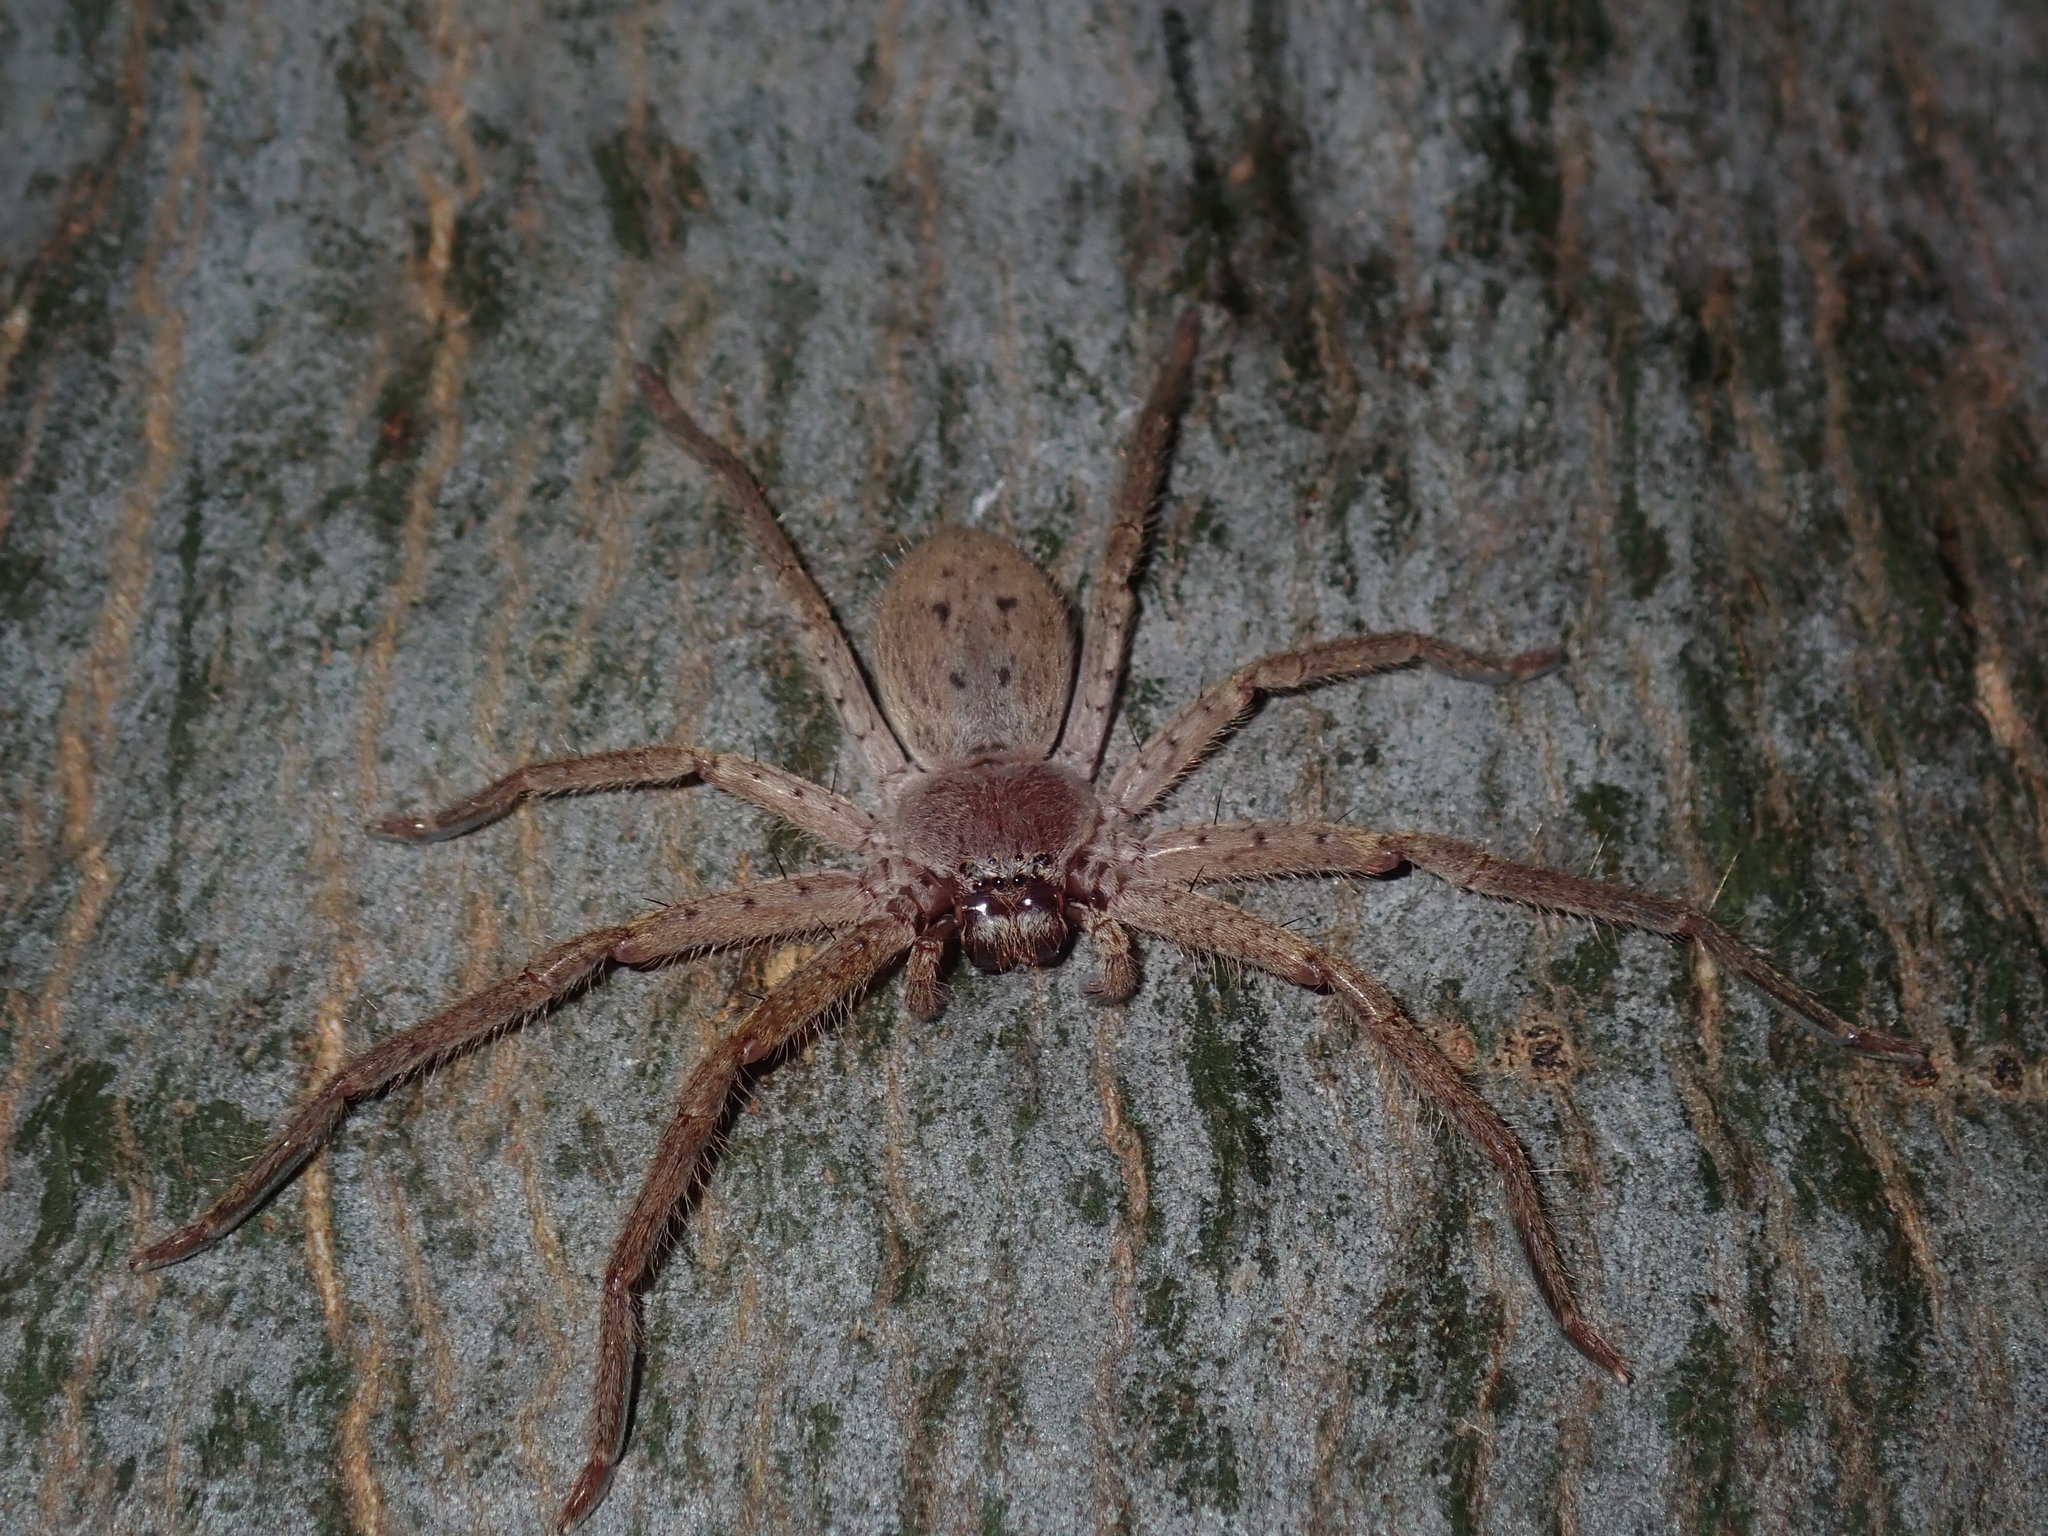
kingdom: Animalia
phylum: Arthropoda
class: Arachnida
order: Araneae
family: Sparassidae
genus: Isopeda
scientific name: Isopeda villosa
